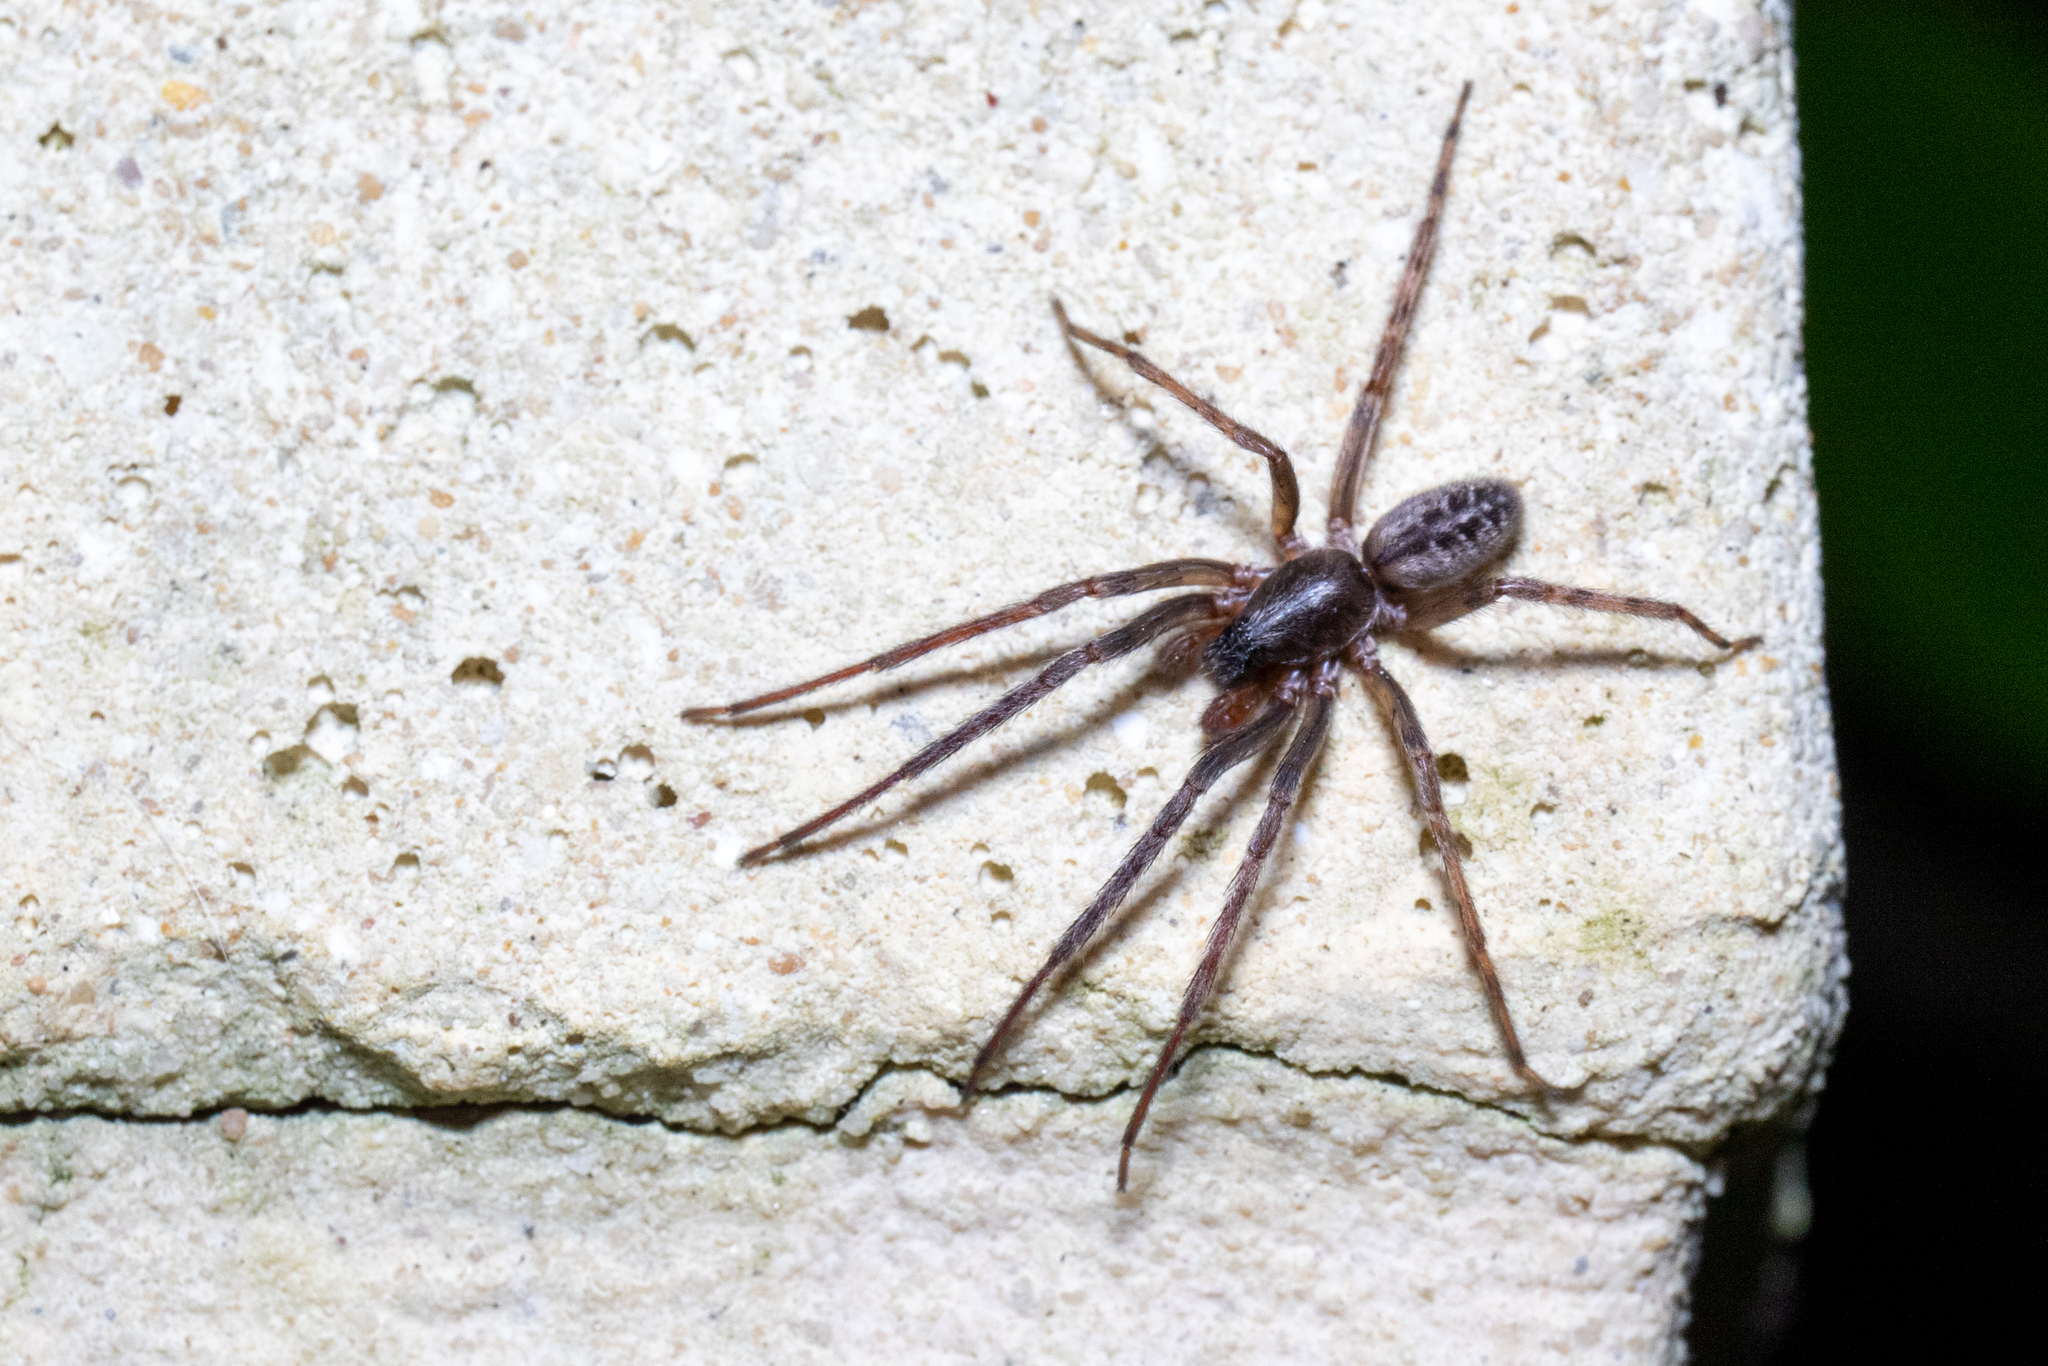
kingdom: Animalia
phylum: Arthropoda
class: Arachnida
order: Araneae
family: Segestriidae
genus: Segestria
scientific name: Segestria bavarica
